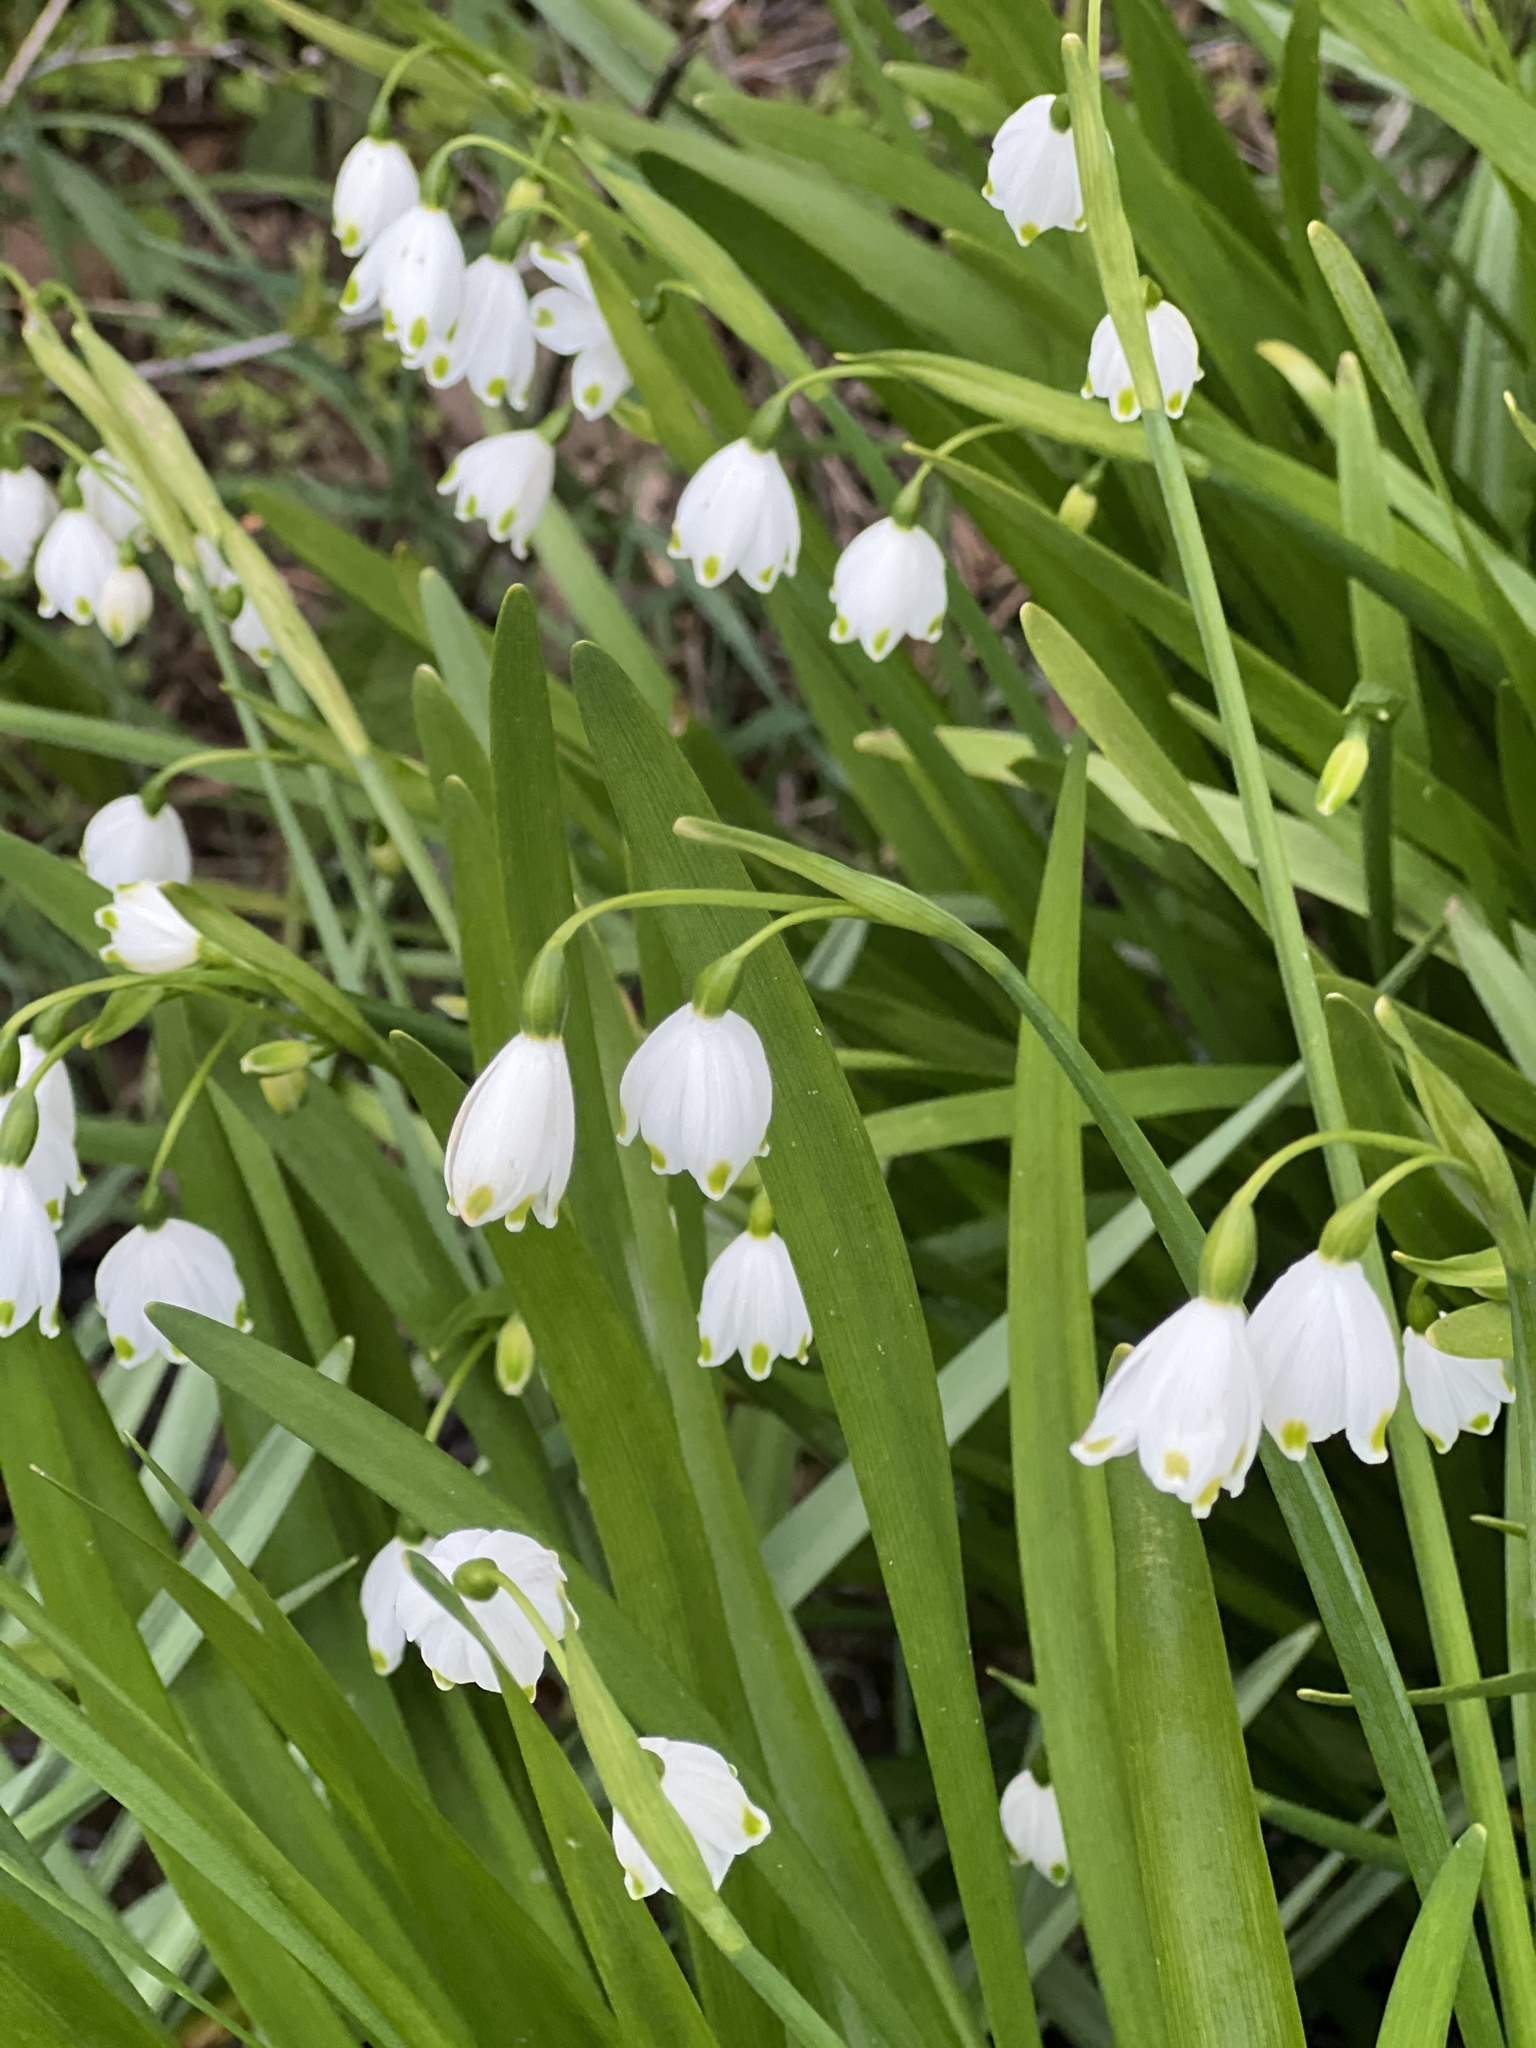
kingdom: Plantae
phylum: Tracheophyta
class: Liliopsida
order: Asparagales
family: Amaryllidaceae
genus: Leucojum
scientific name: Leucojum aestivum
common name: Summer snowflake
